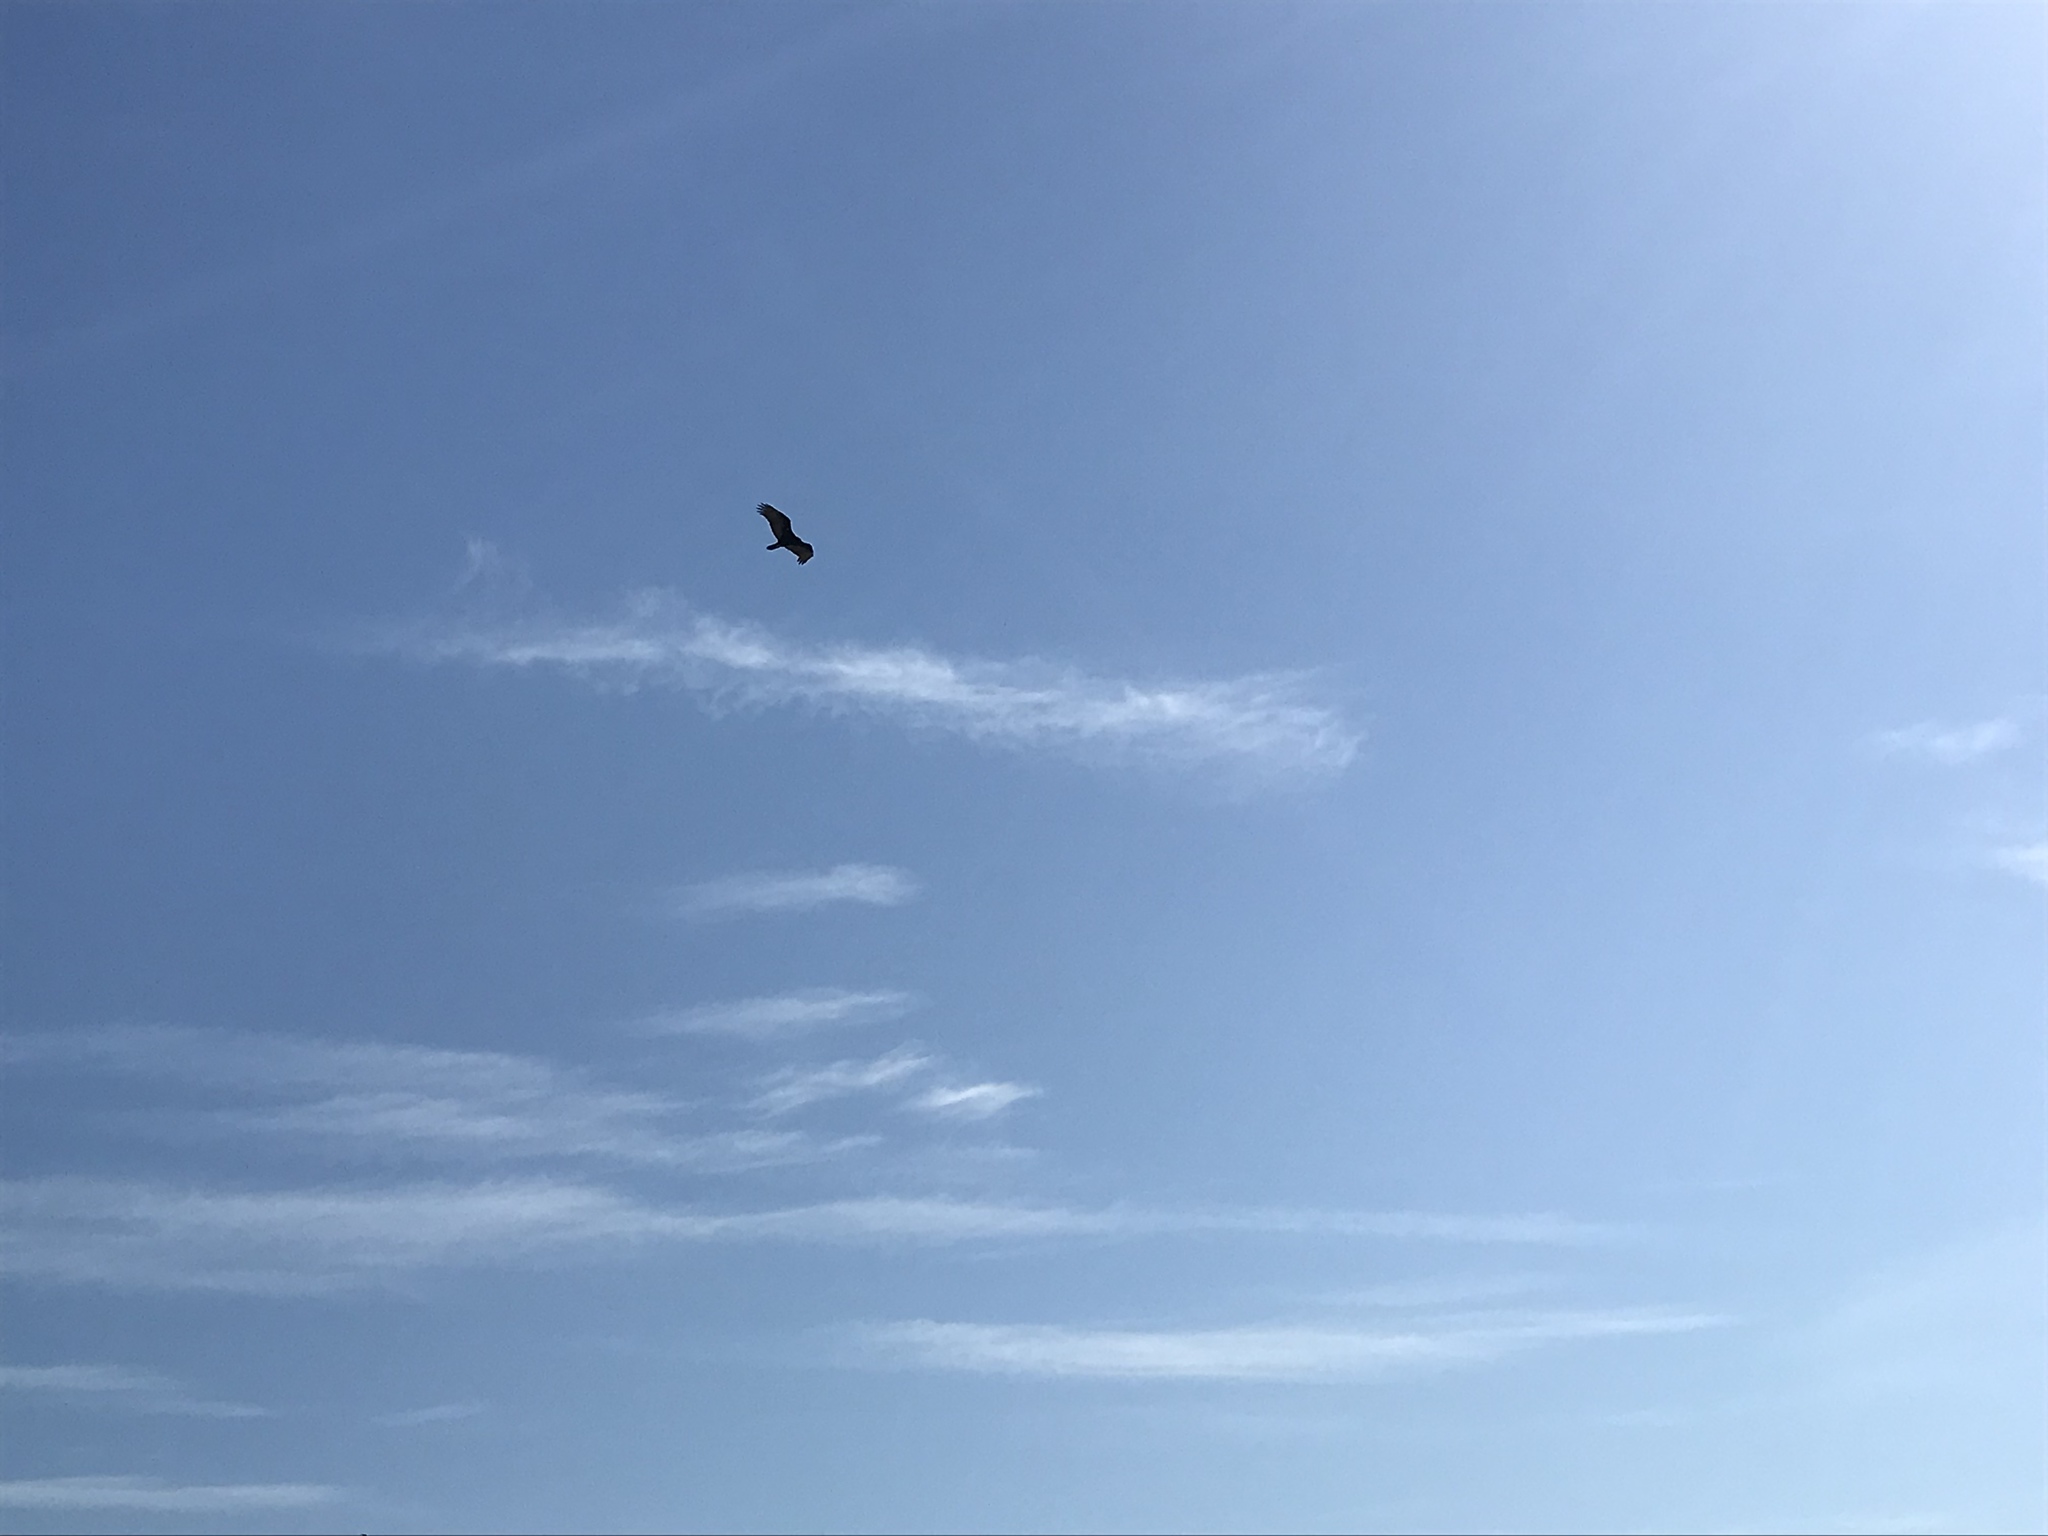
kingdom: Animalia
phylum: Chordata
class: Aves
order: Accipitriformes
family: Cathartidae
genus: Cathartes
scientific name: Cathartes aura
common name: Turkey vulture
